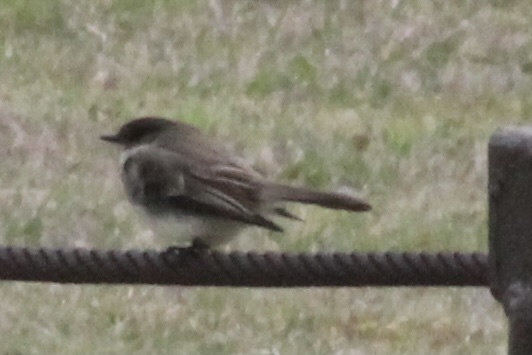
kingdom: Animalia
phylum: Chordata
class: Aves
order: Passeriformes
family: Tyrannidae
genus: Sayornis
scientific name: Sayornis phoebe
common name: Eastern phoebe
